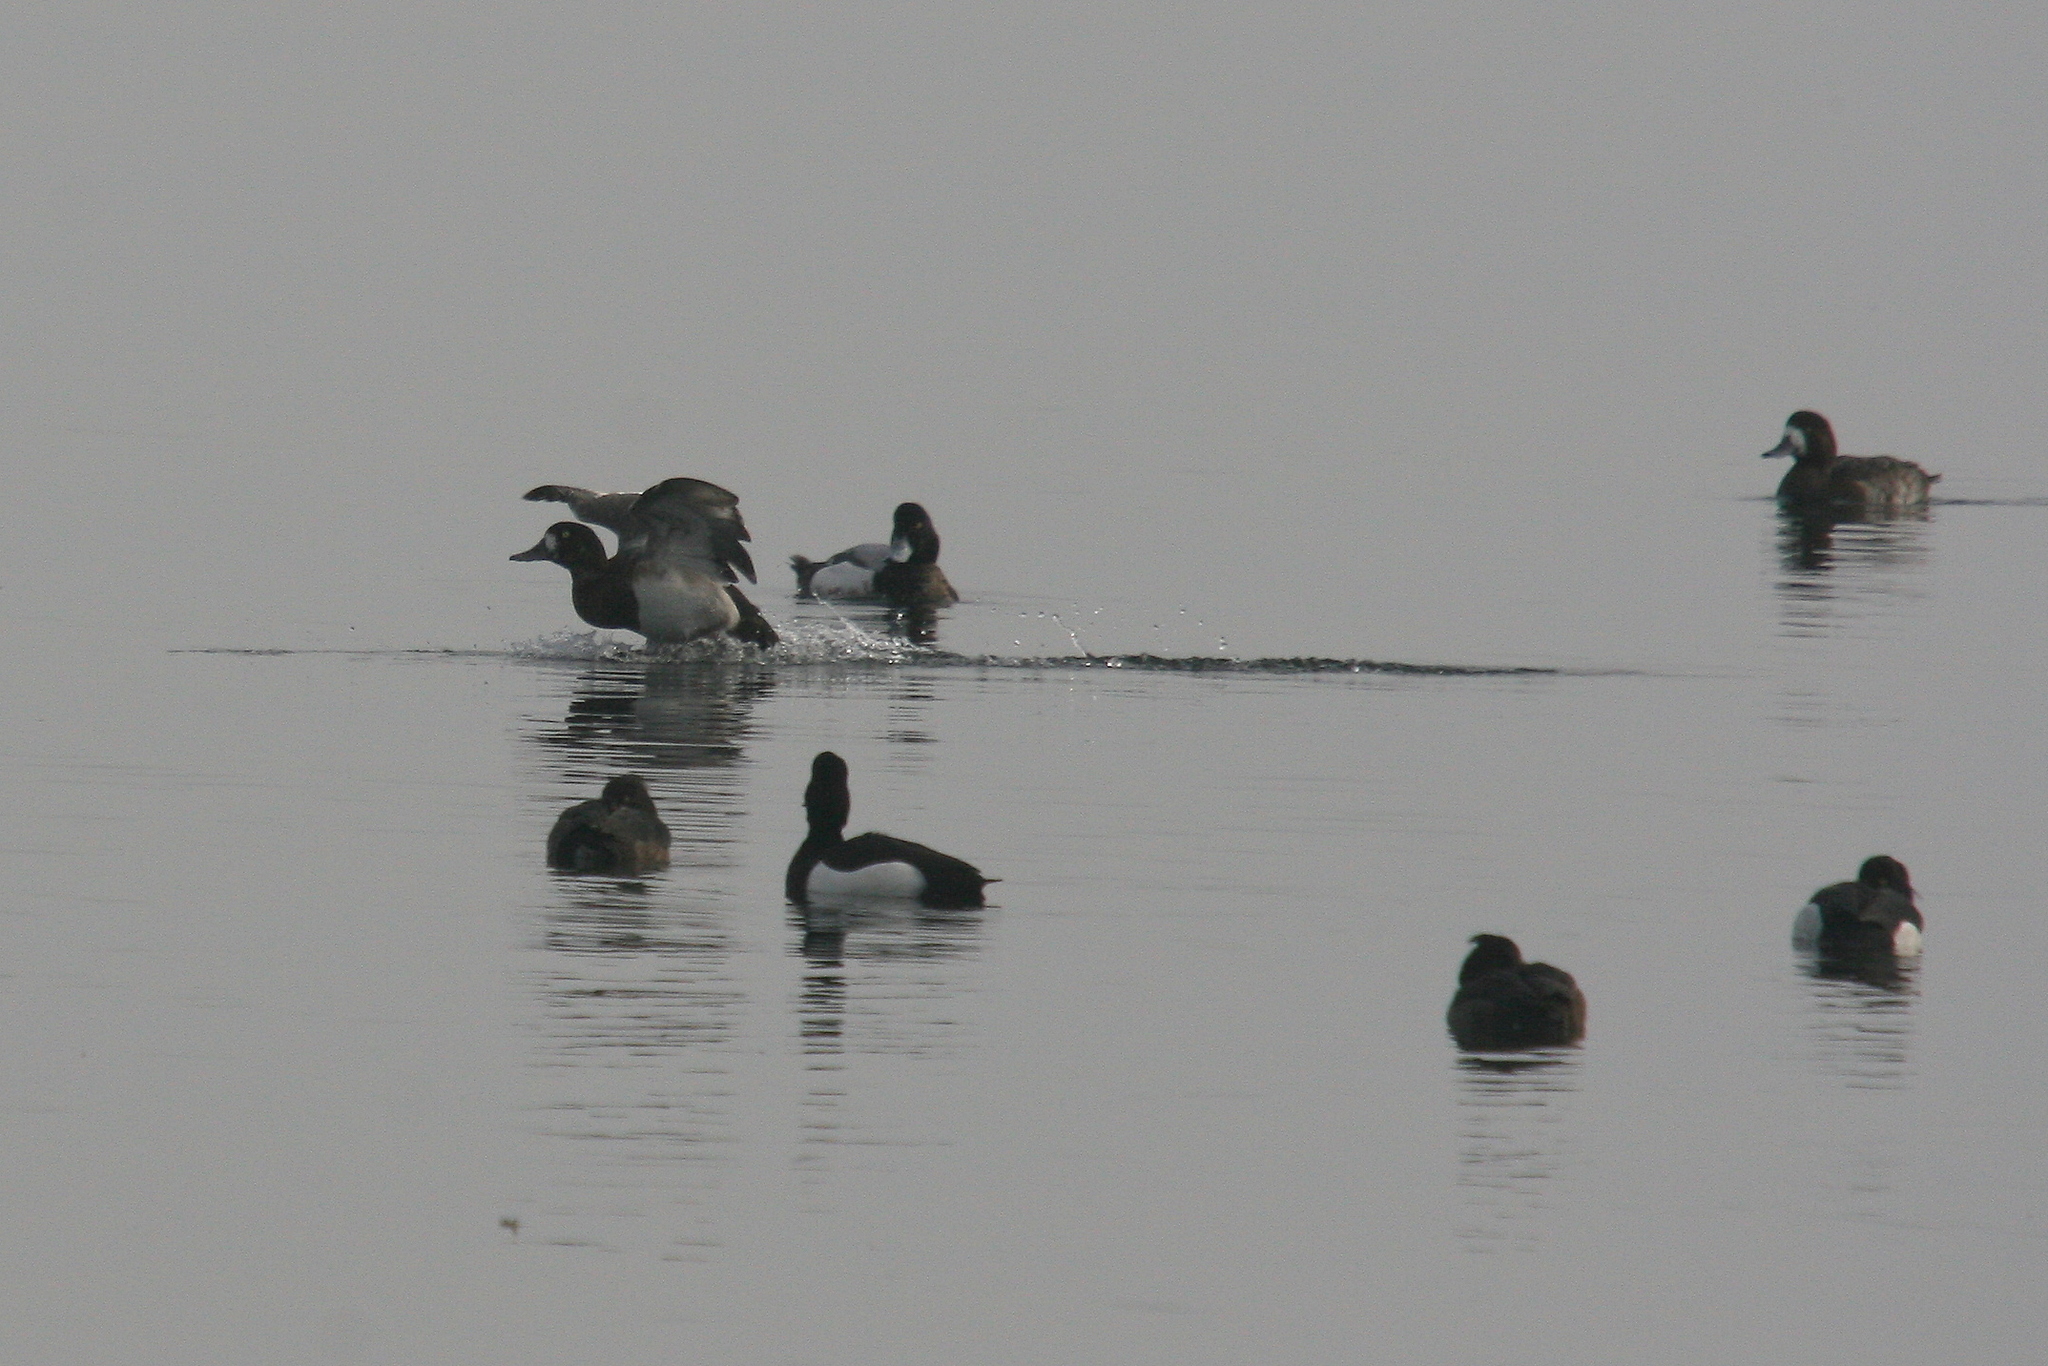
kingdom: Animalia
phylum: Chordata
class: Aves
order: Anseriformes
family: Anatidae
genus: Aythya
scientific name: Aythya marila
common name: Greater scaup
